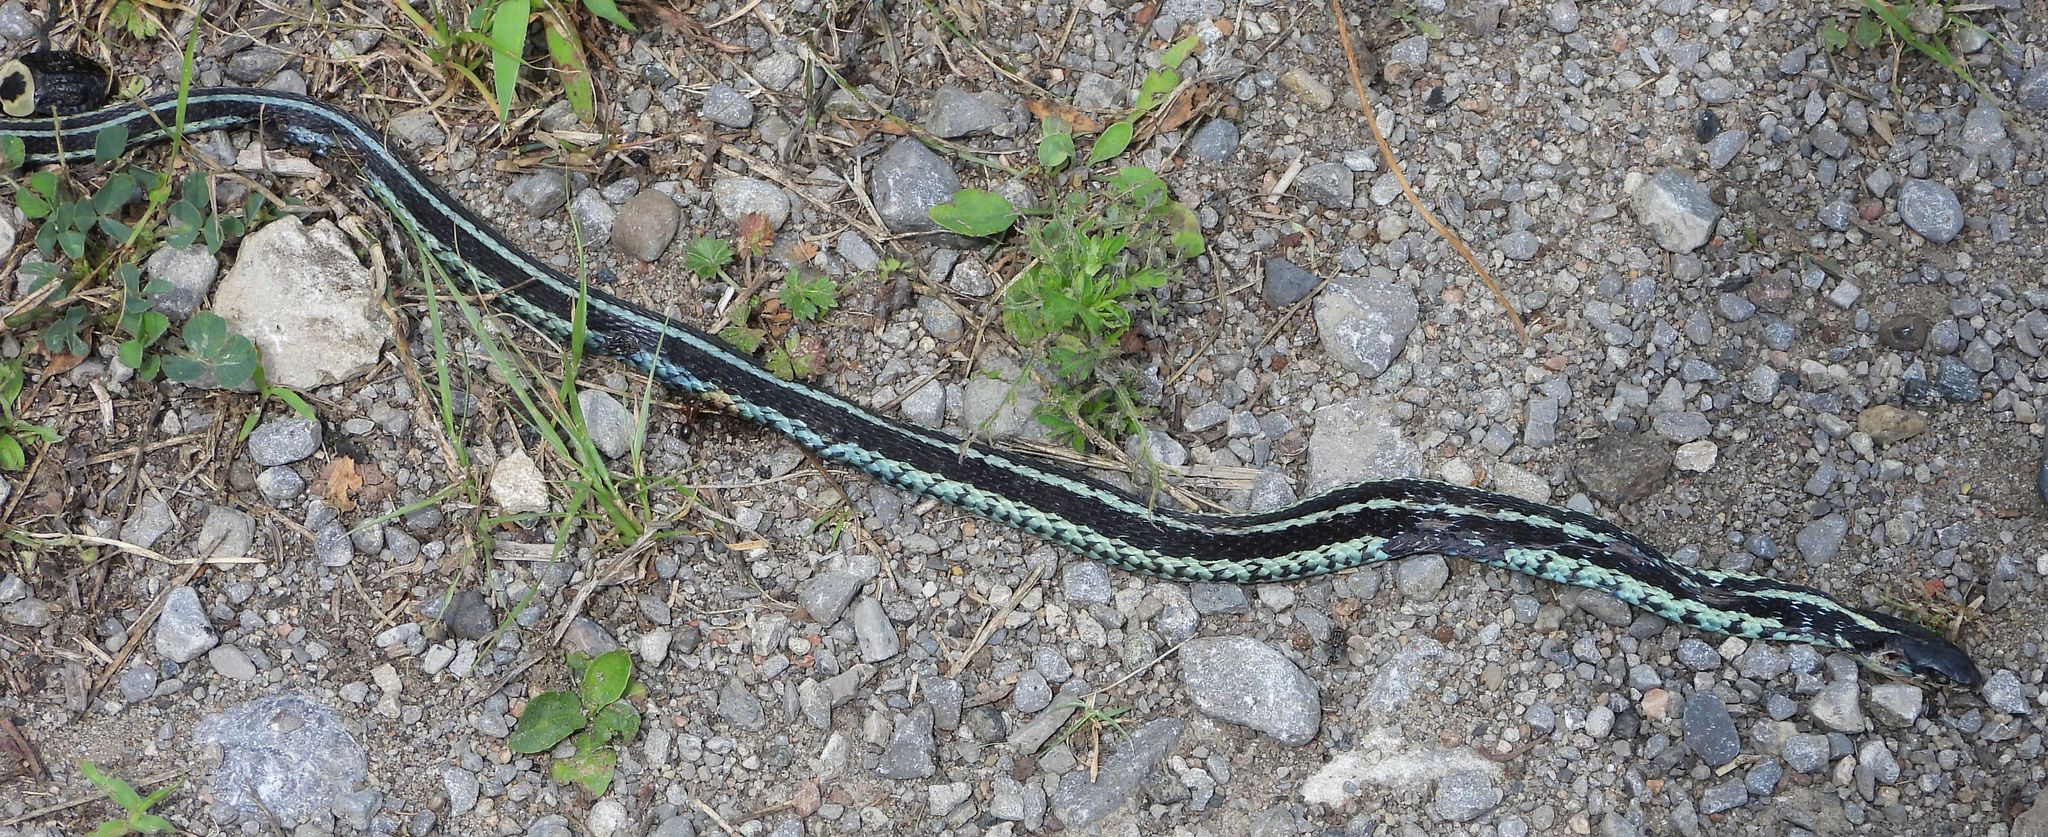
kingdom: Animalia
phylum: Chordata
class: Squamata
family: Colubridae
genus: Thamnophis
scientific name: Thamnophis sirtalis
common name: Common garter snake
